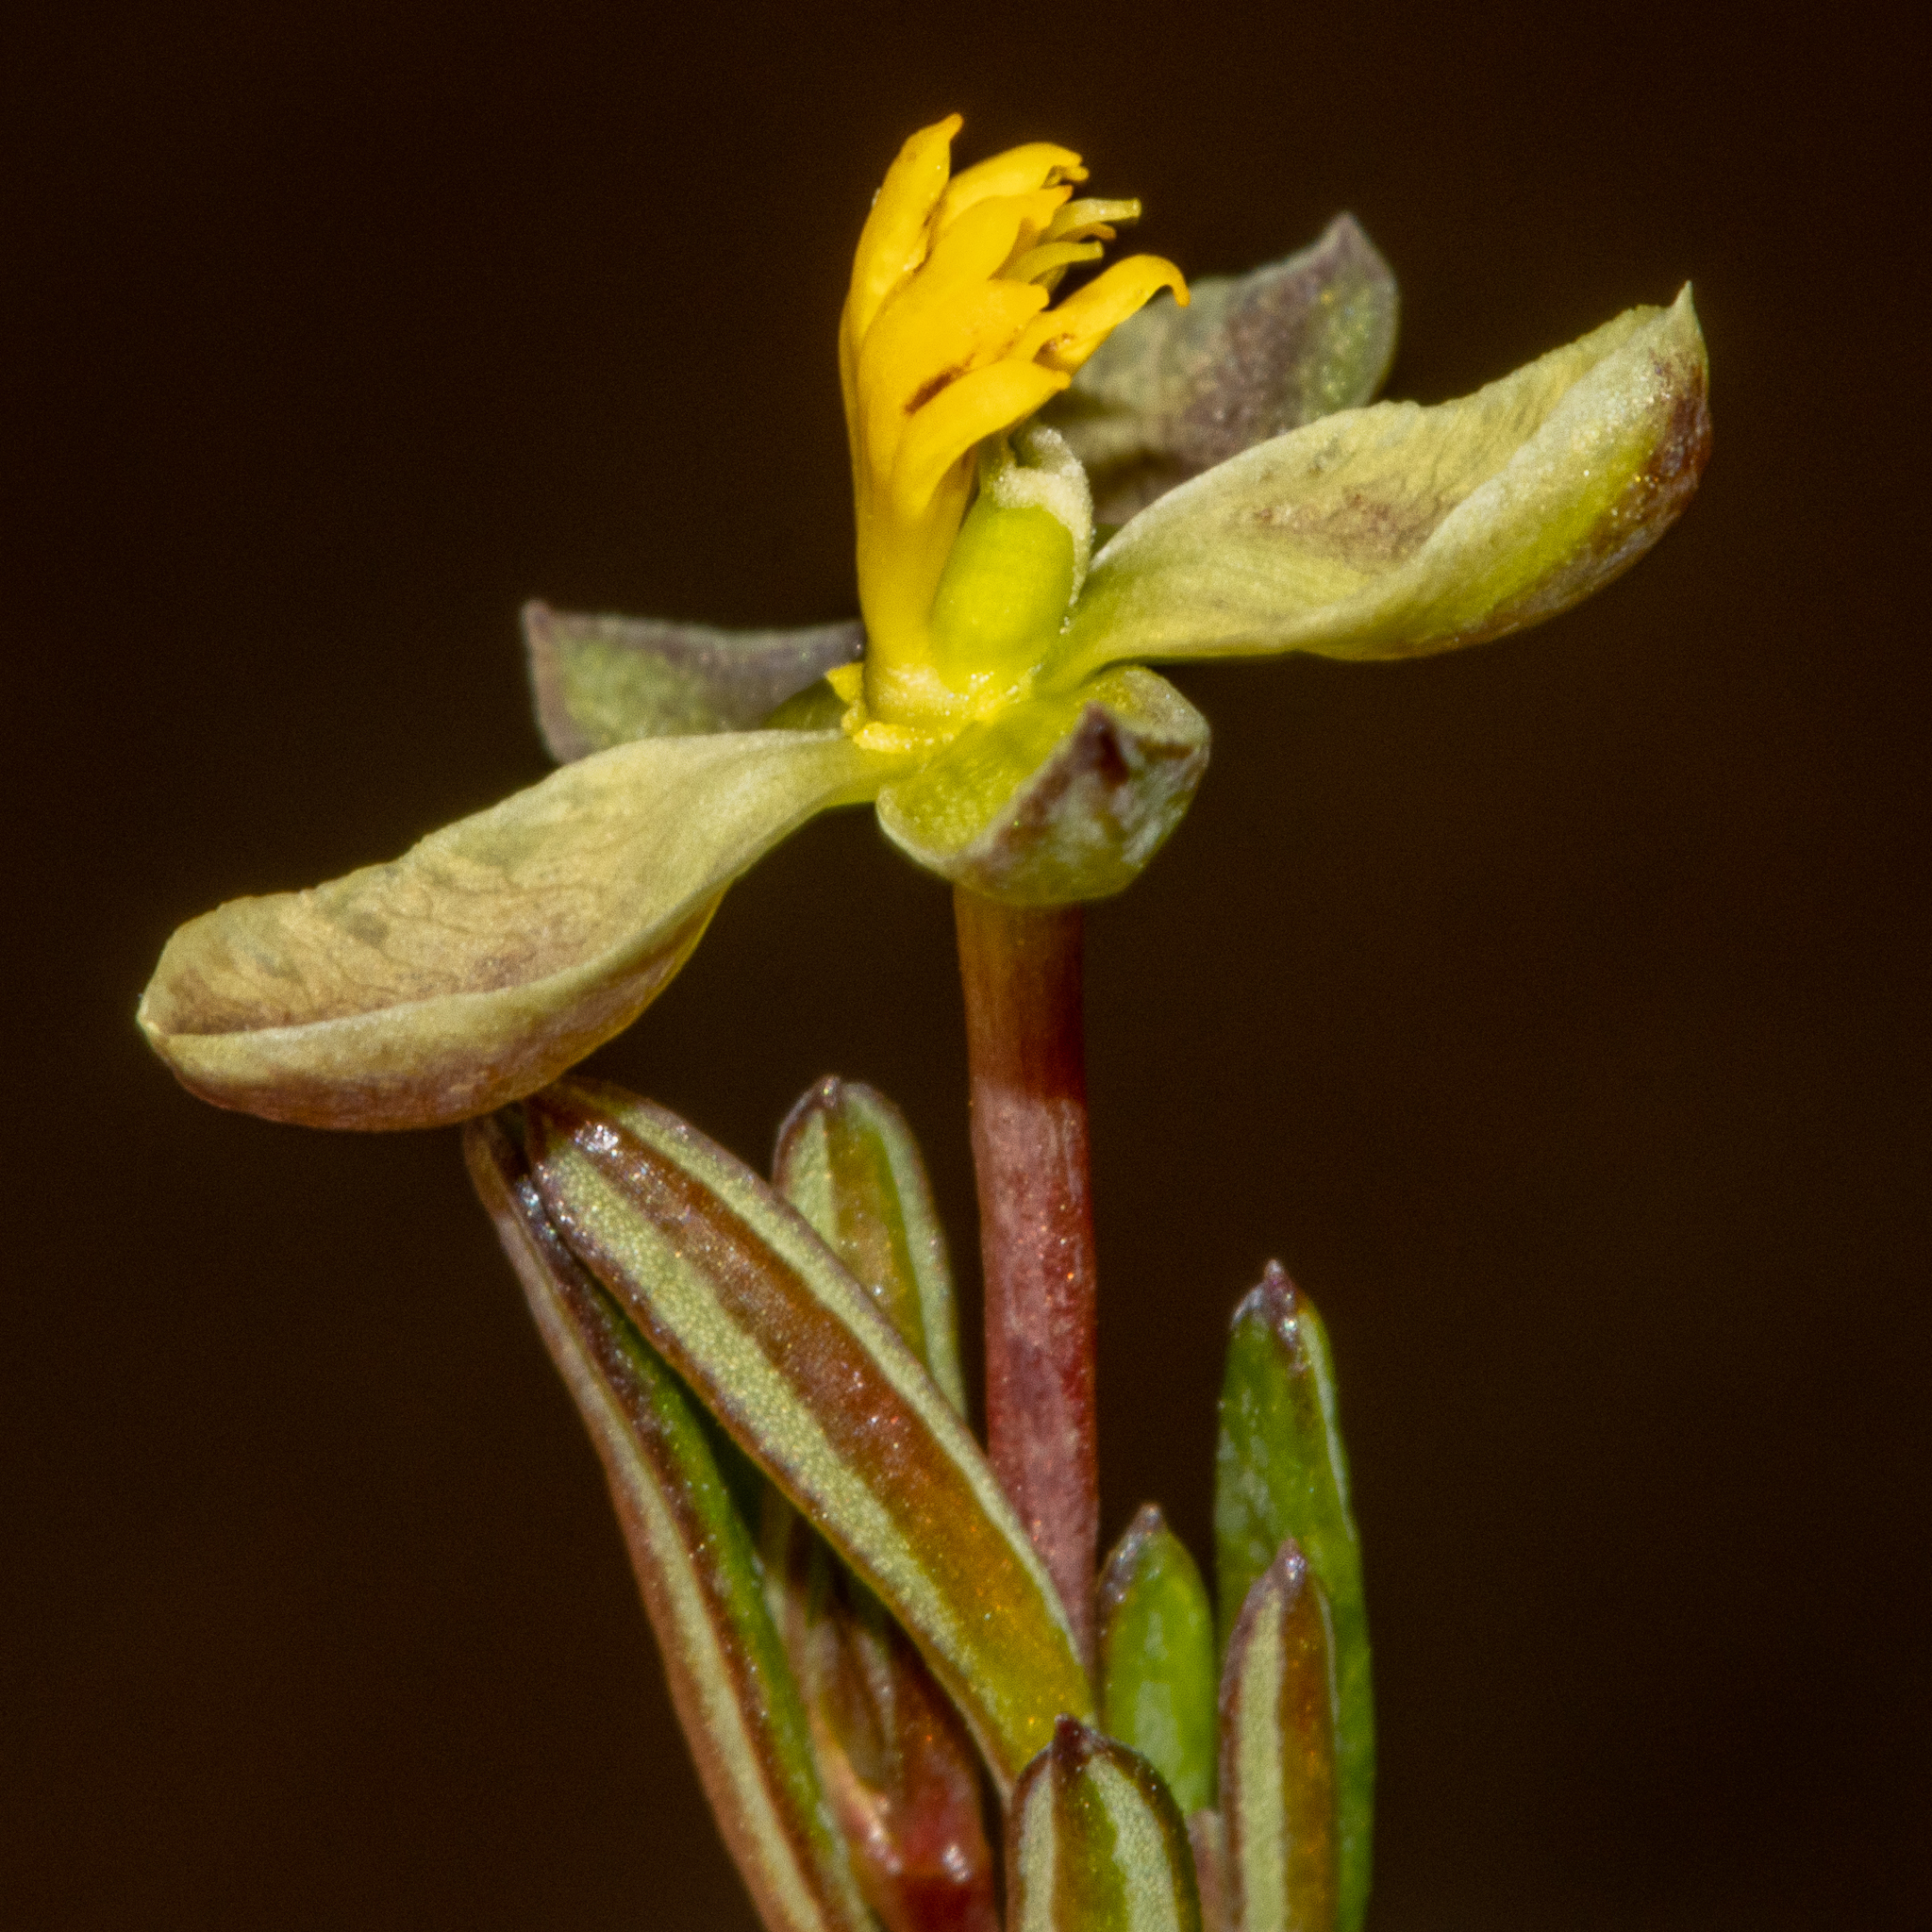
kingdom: Plantae
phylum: Tracheophyta
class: Magnoliopsida
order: Dilleniales
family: Dilleniaceae
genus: Hibbertia
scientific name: Hibbertia gracilipes
